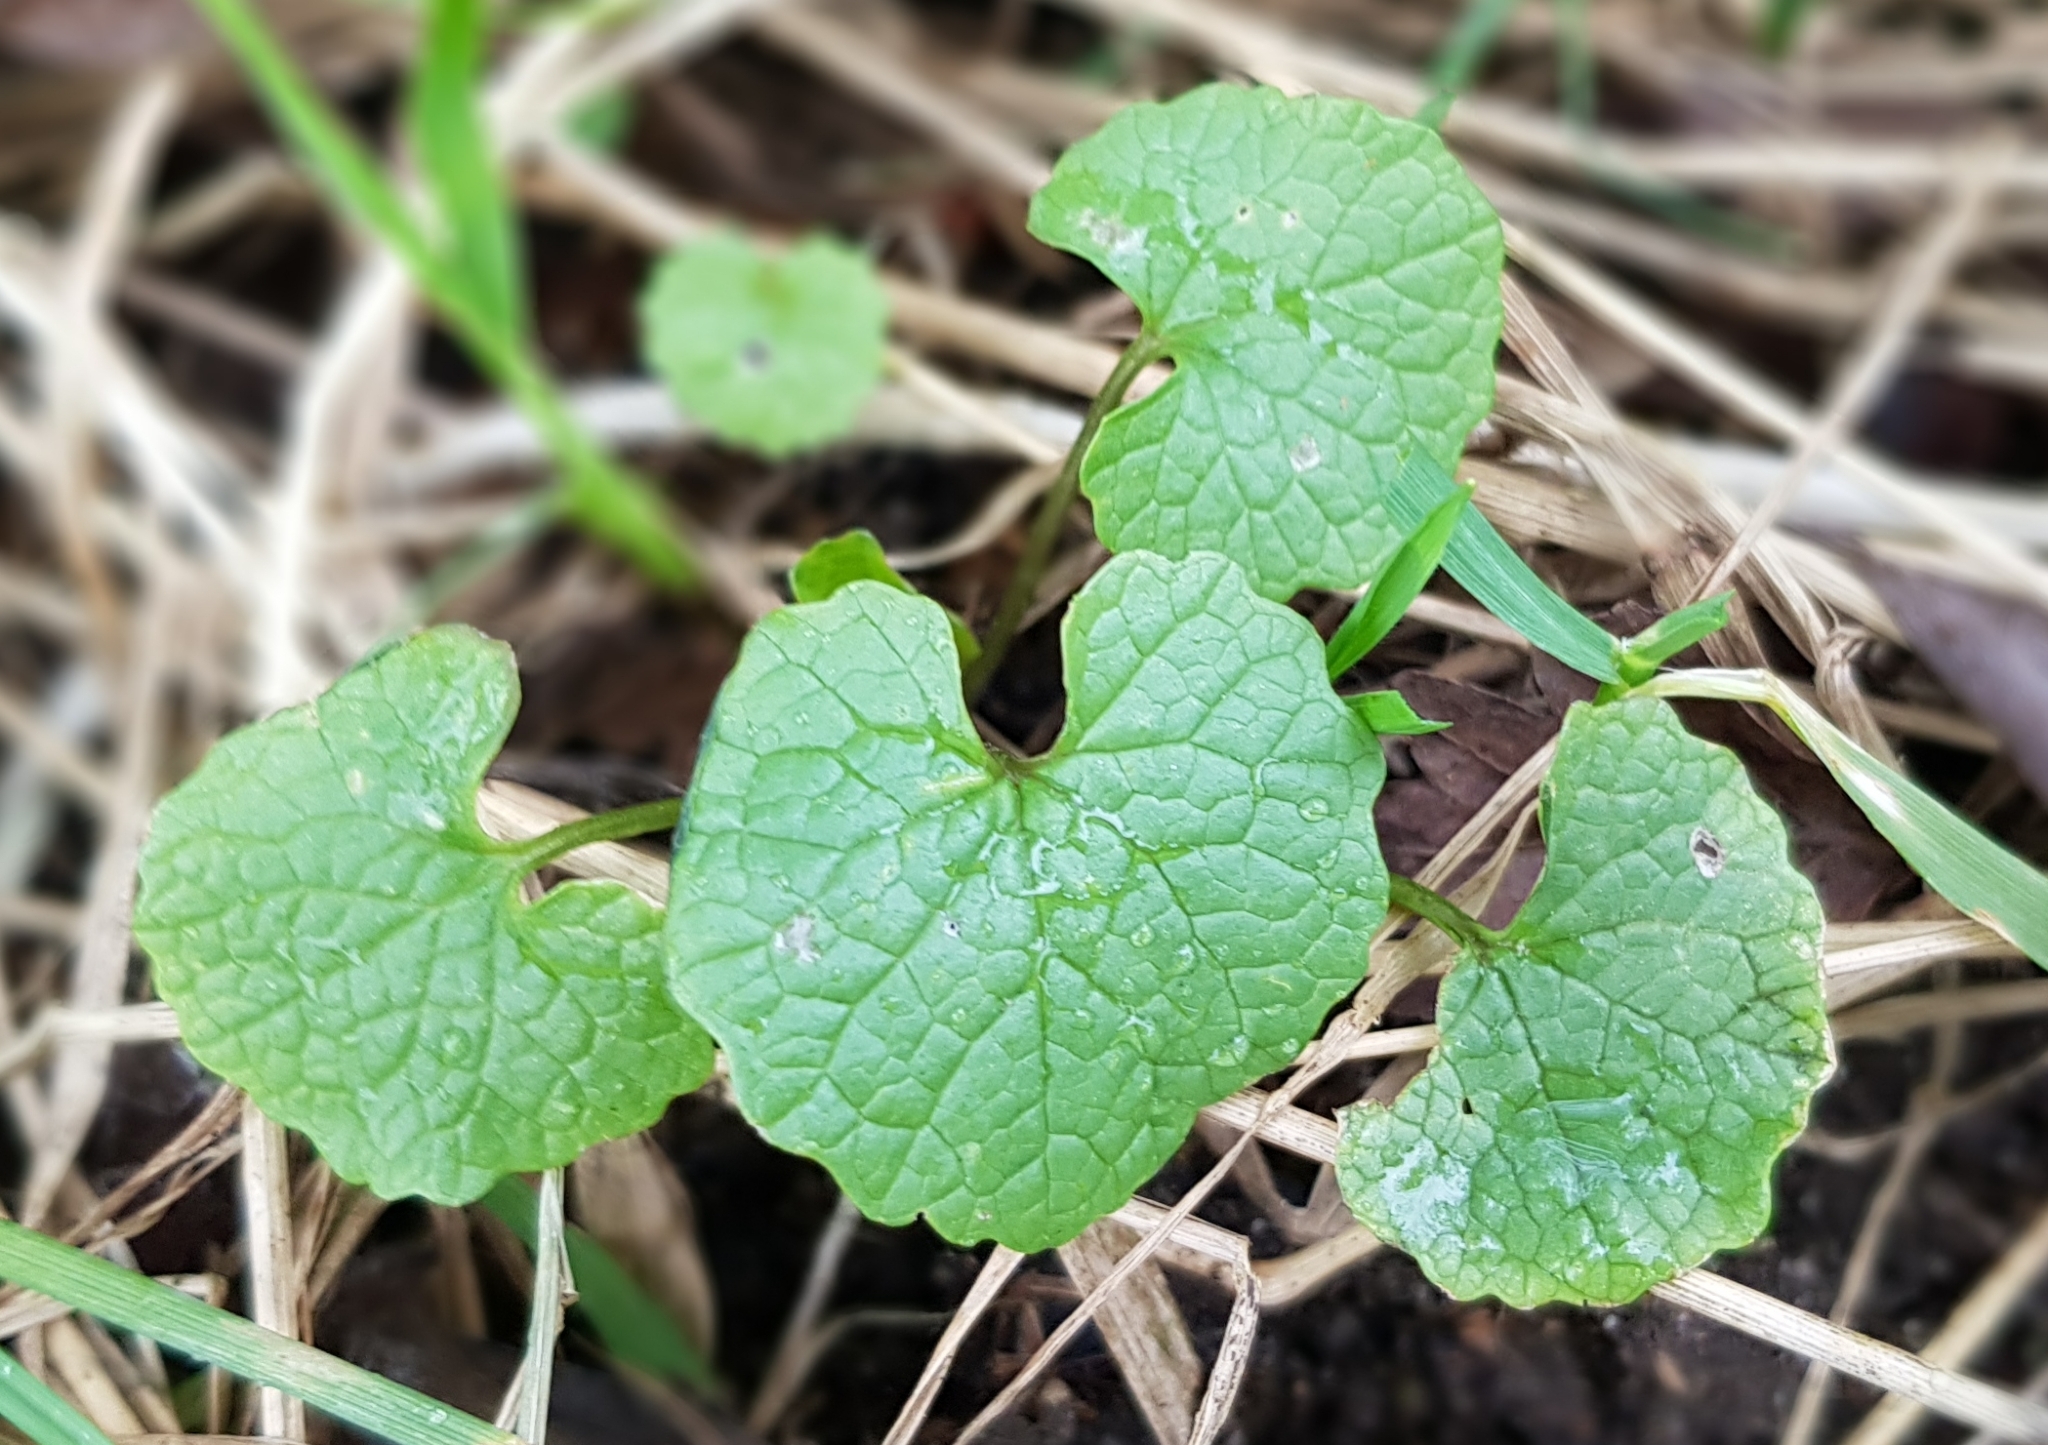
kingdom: Plantae
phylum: Tracheophyta
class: Magnoliopsida
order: Brassicales
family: Brassicaceae
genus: Alliaria
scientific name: Alliaria petiolata
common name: Garlic mustard
